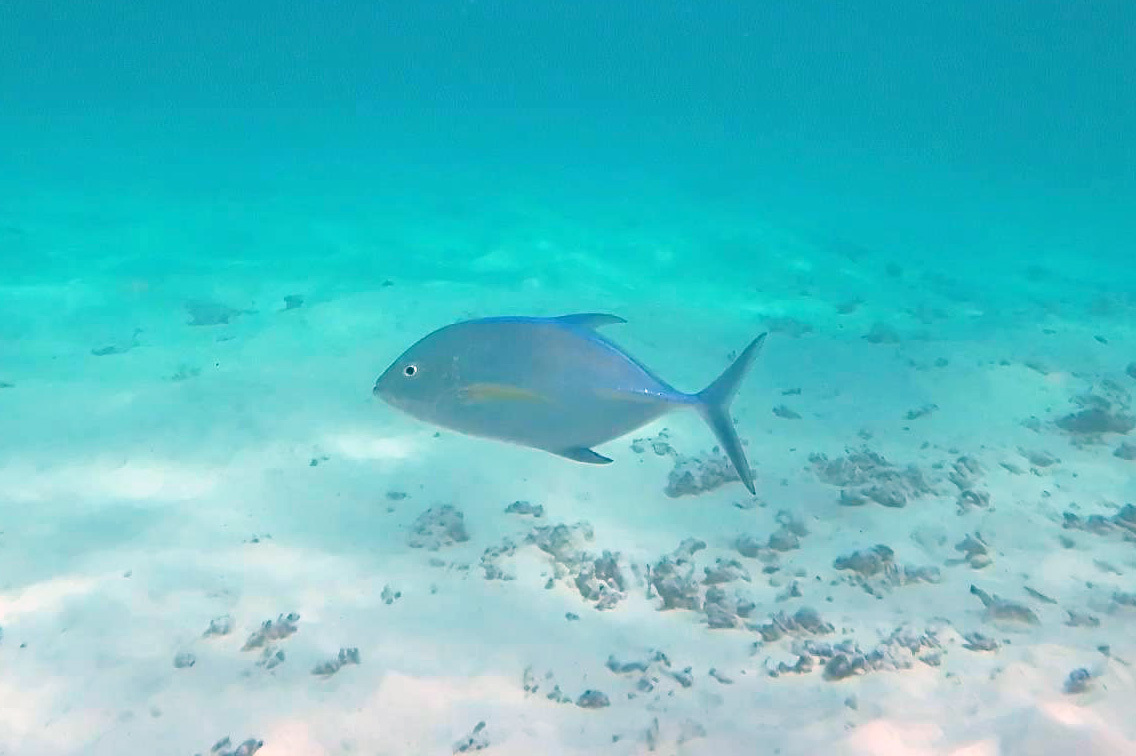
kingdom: Animalia
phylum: Chordata
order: Perciformes
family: Carangidae
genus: Caranx
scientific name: Caranx melampygus
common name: Bluefin trevally
